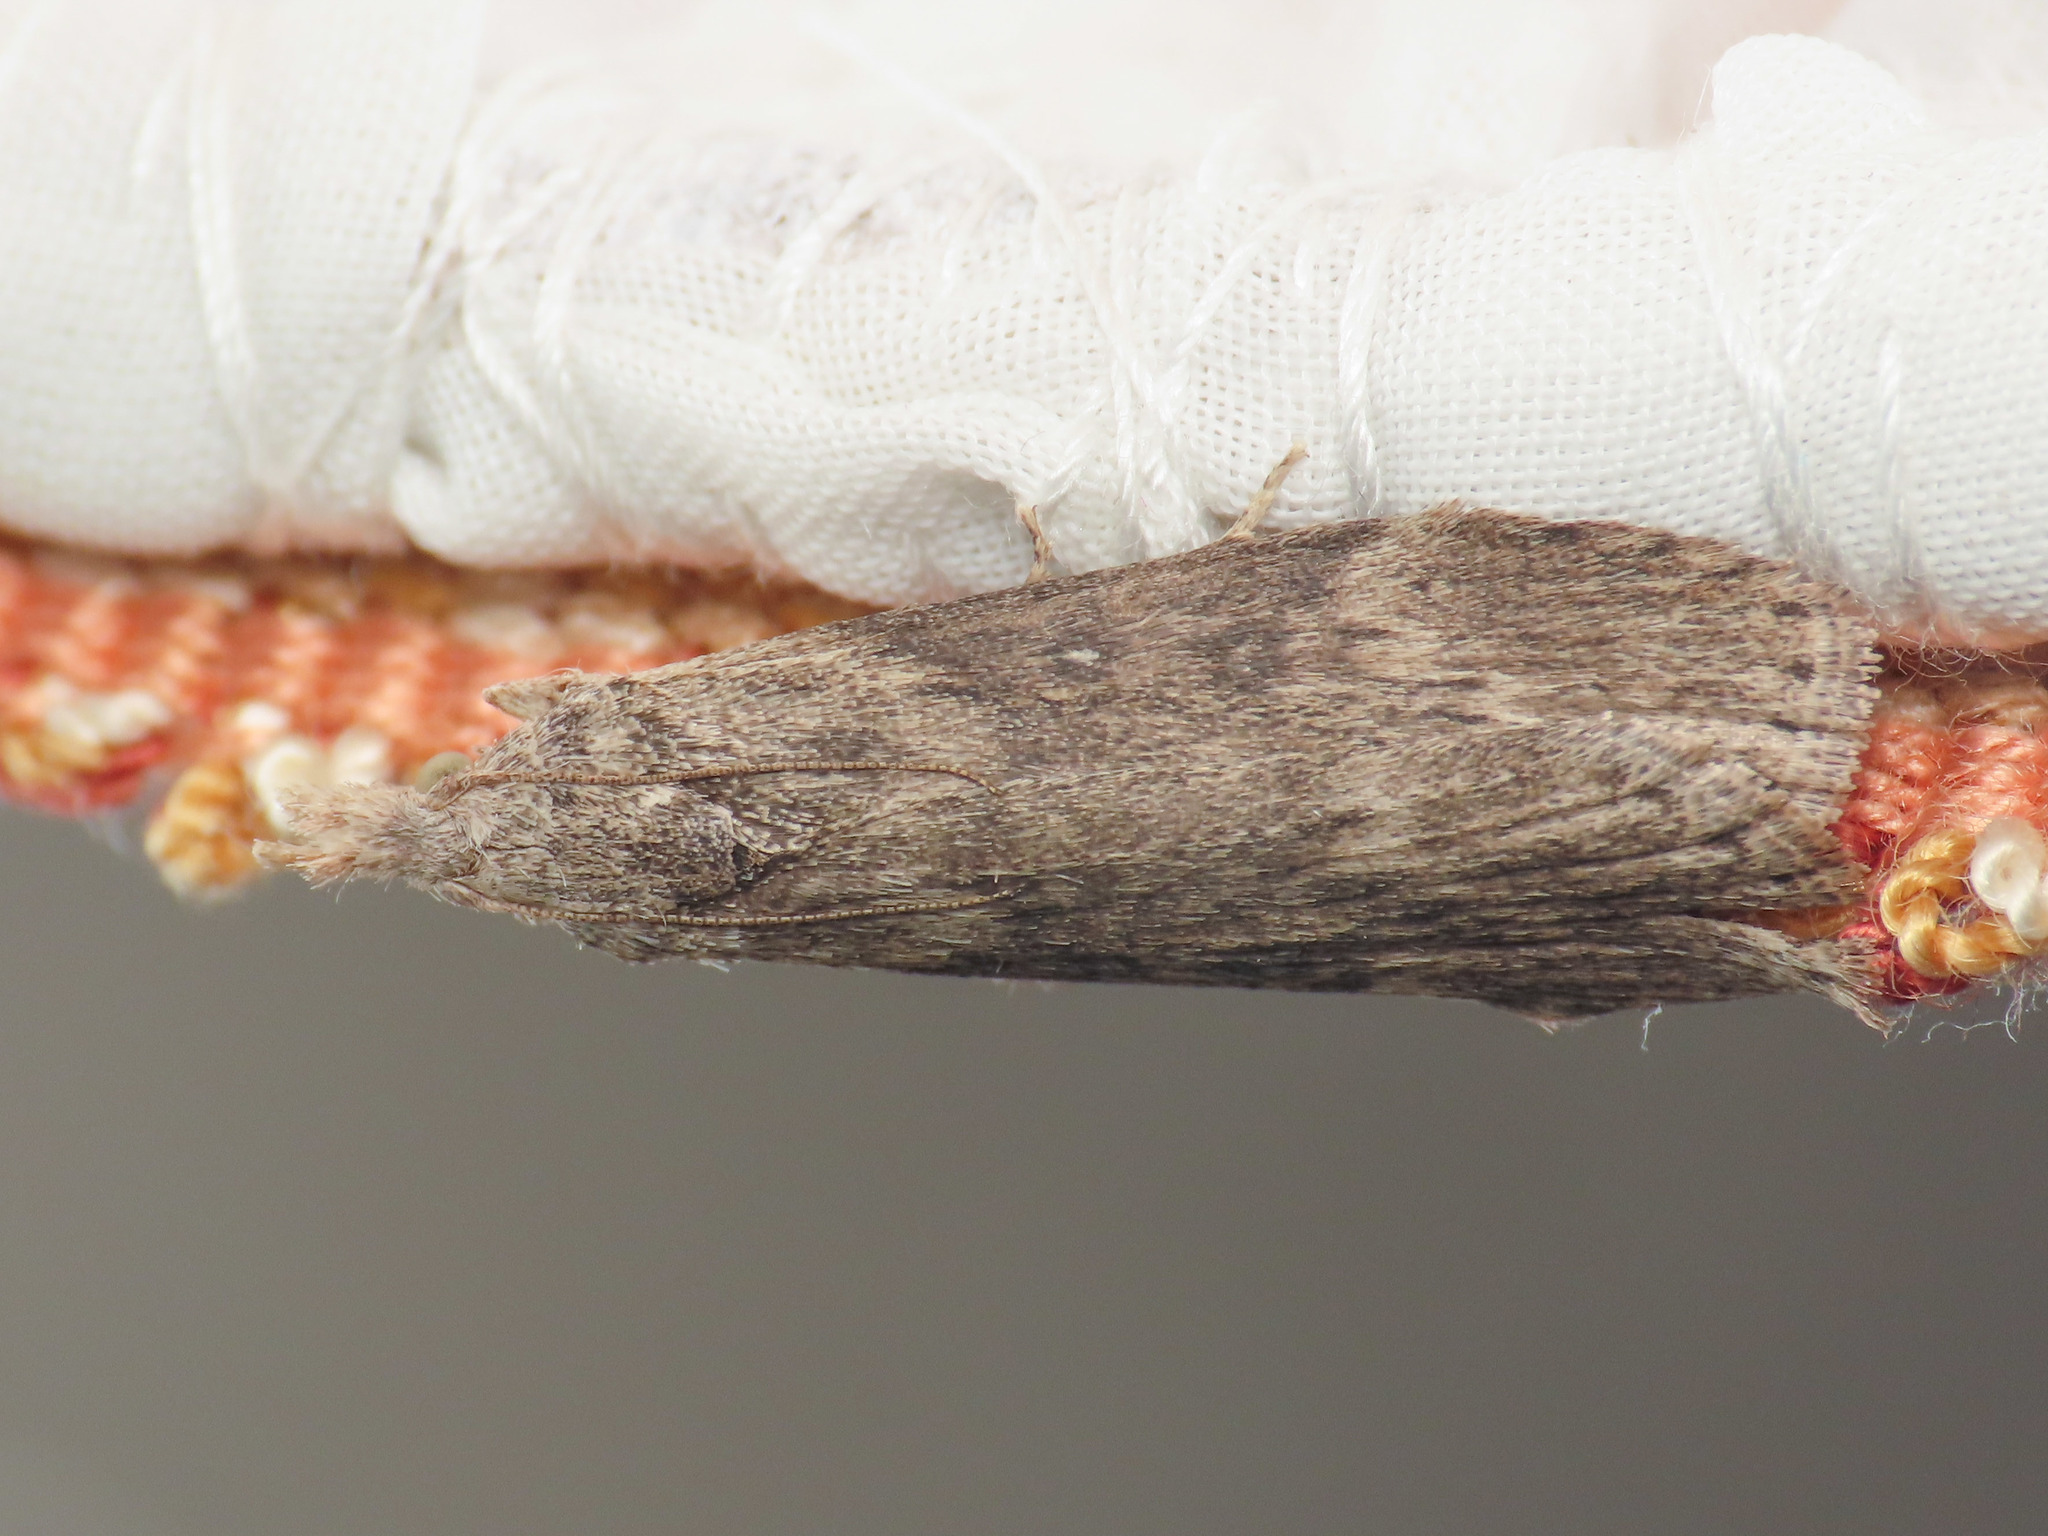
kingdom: Animalia
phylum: Arthropoda
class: Insecta
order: Lepidoptera
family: Pyralidae
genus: Lamoria
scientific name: Lamoria anella
